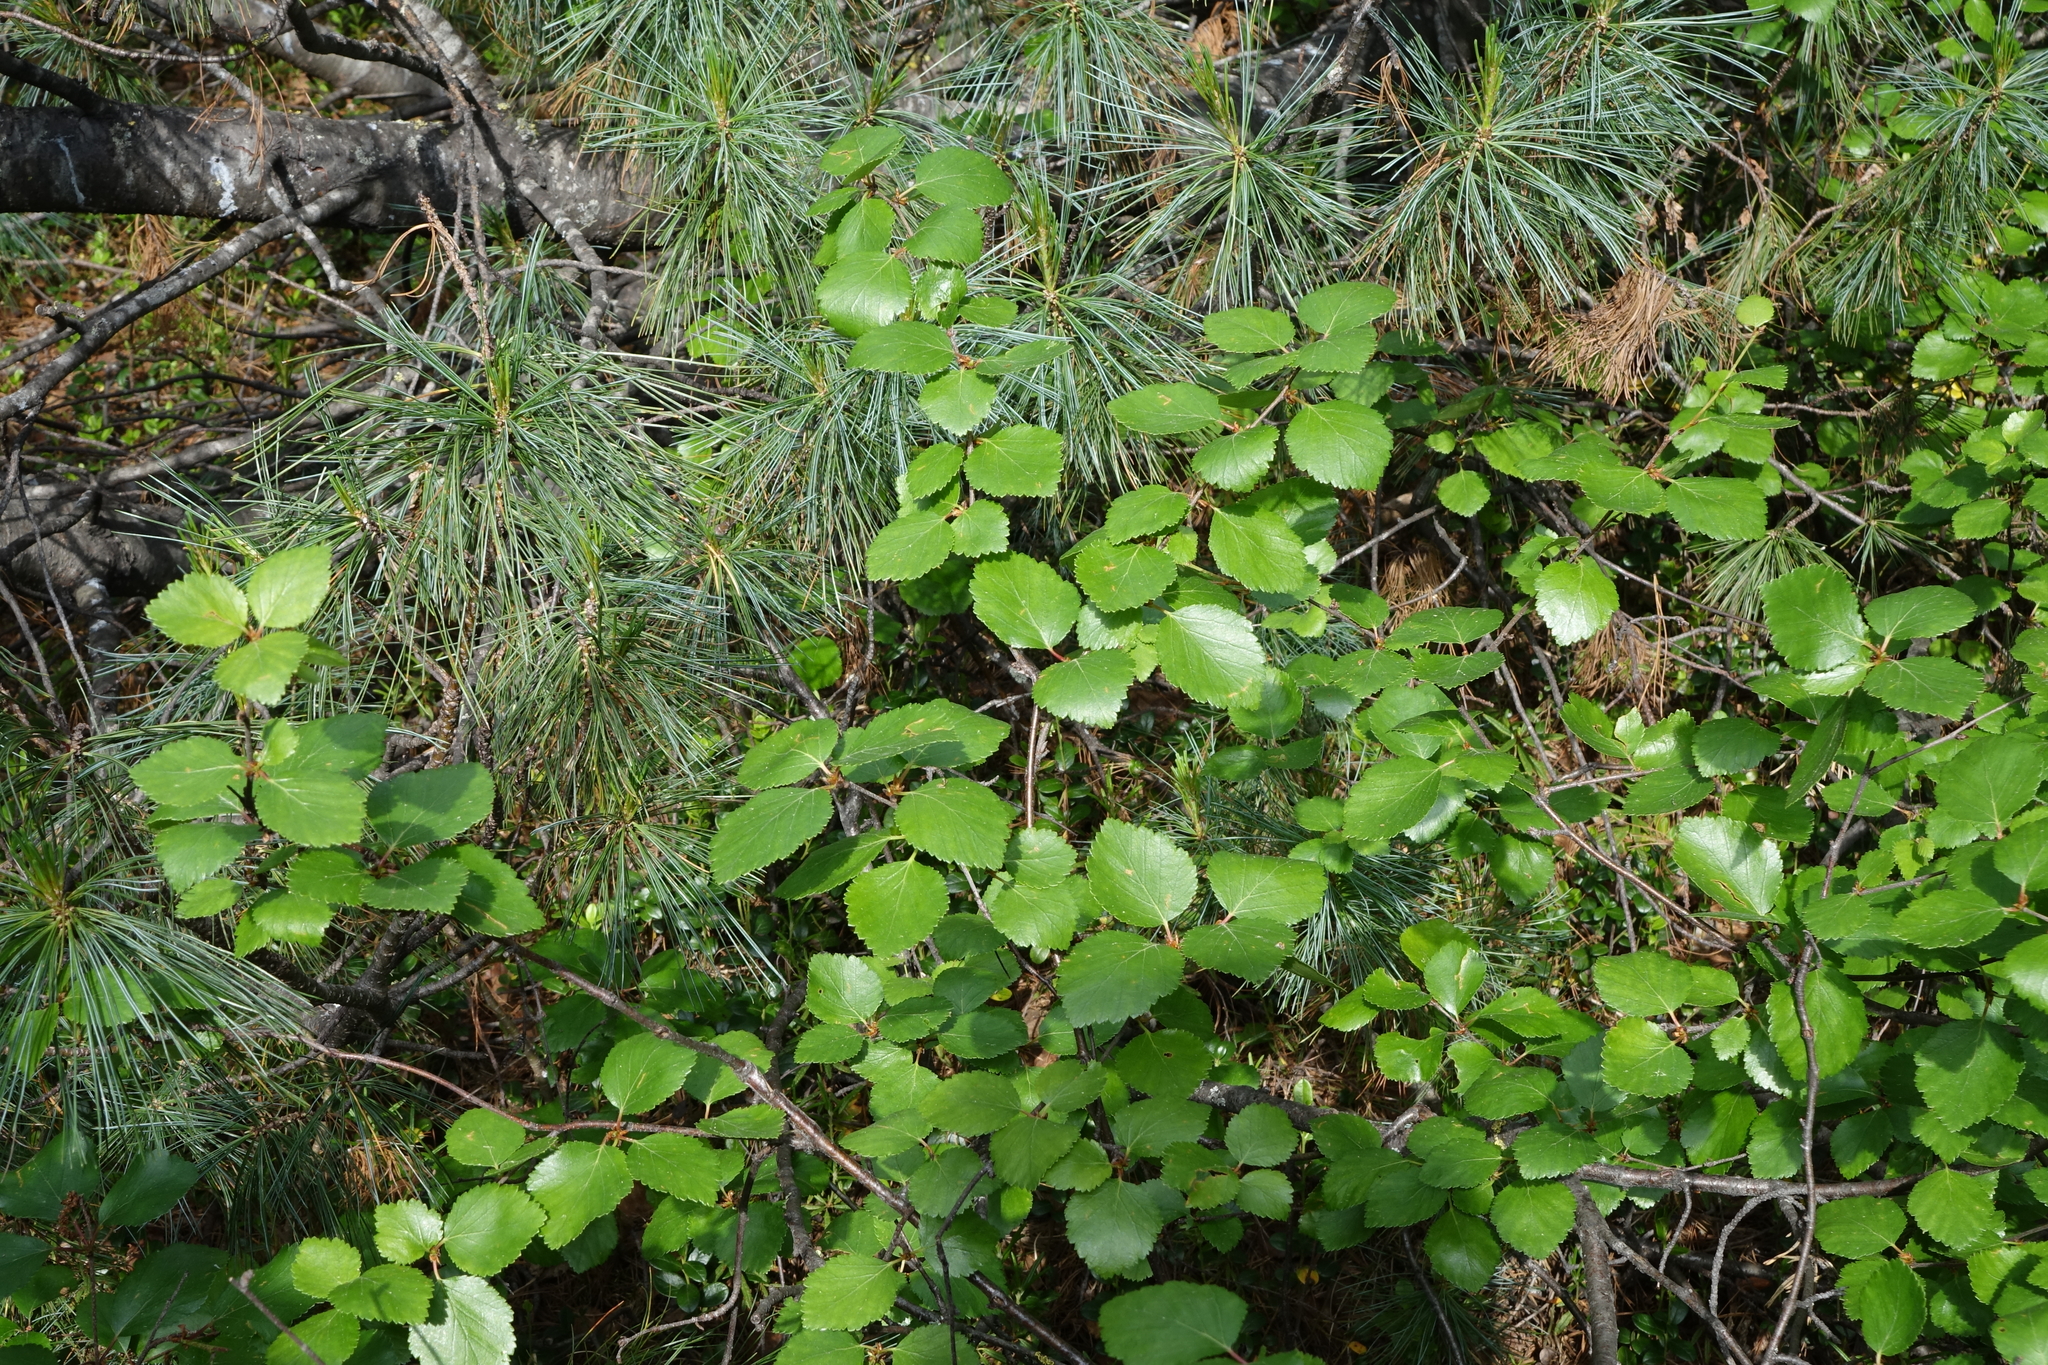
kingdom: Plantae
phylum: Tracheophyta
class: Magnoliopsida
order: Fagales
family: Betulaceae
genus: Betula
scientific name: Betula fruticosa
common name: Japanese bog birch
